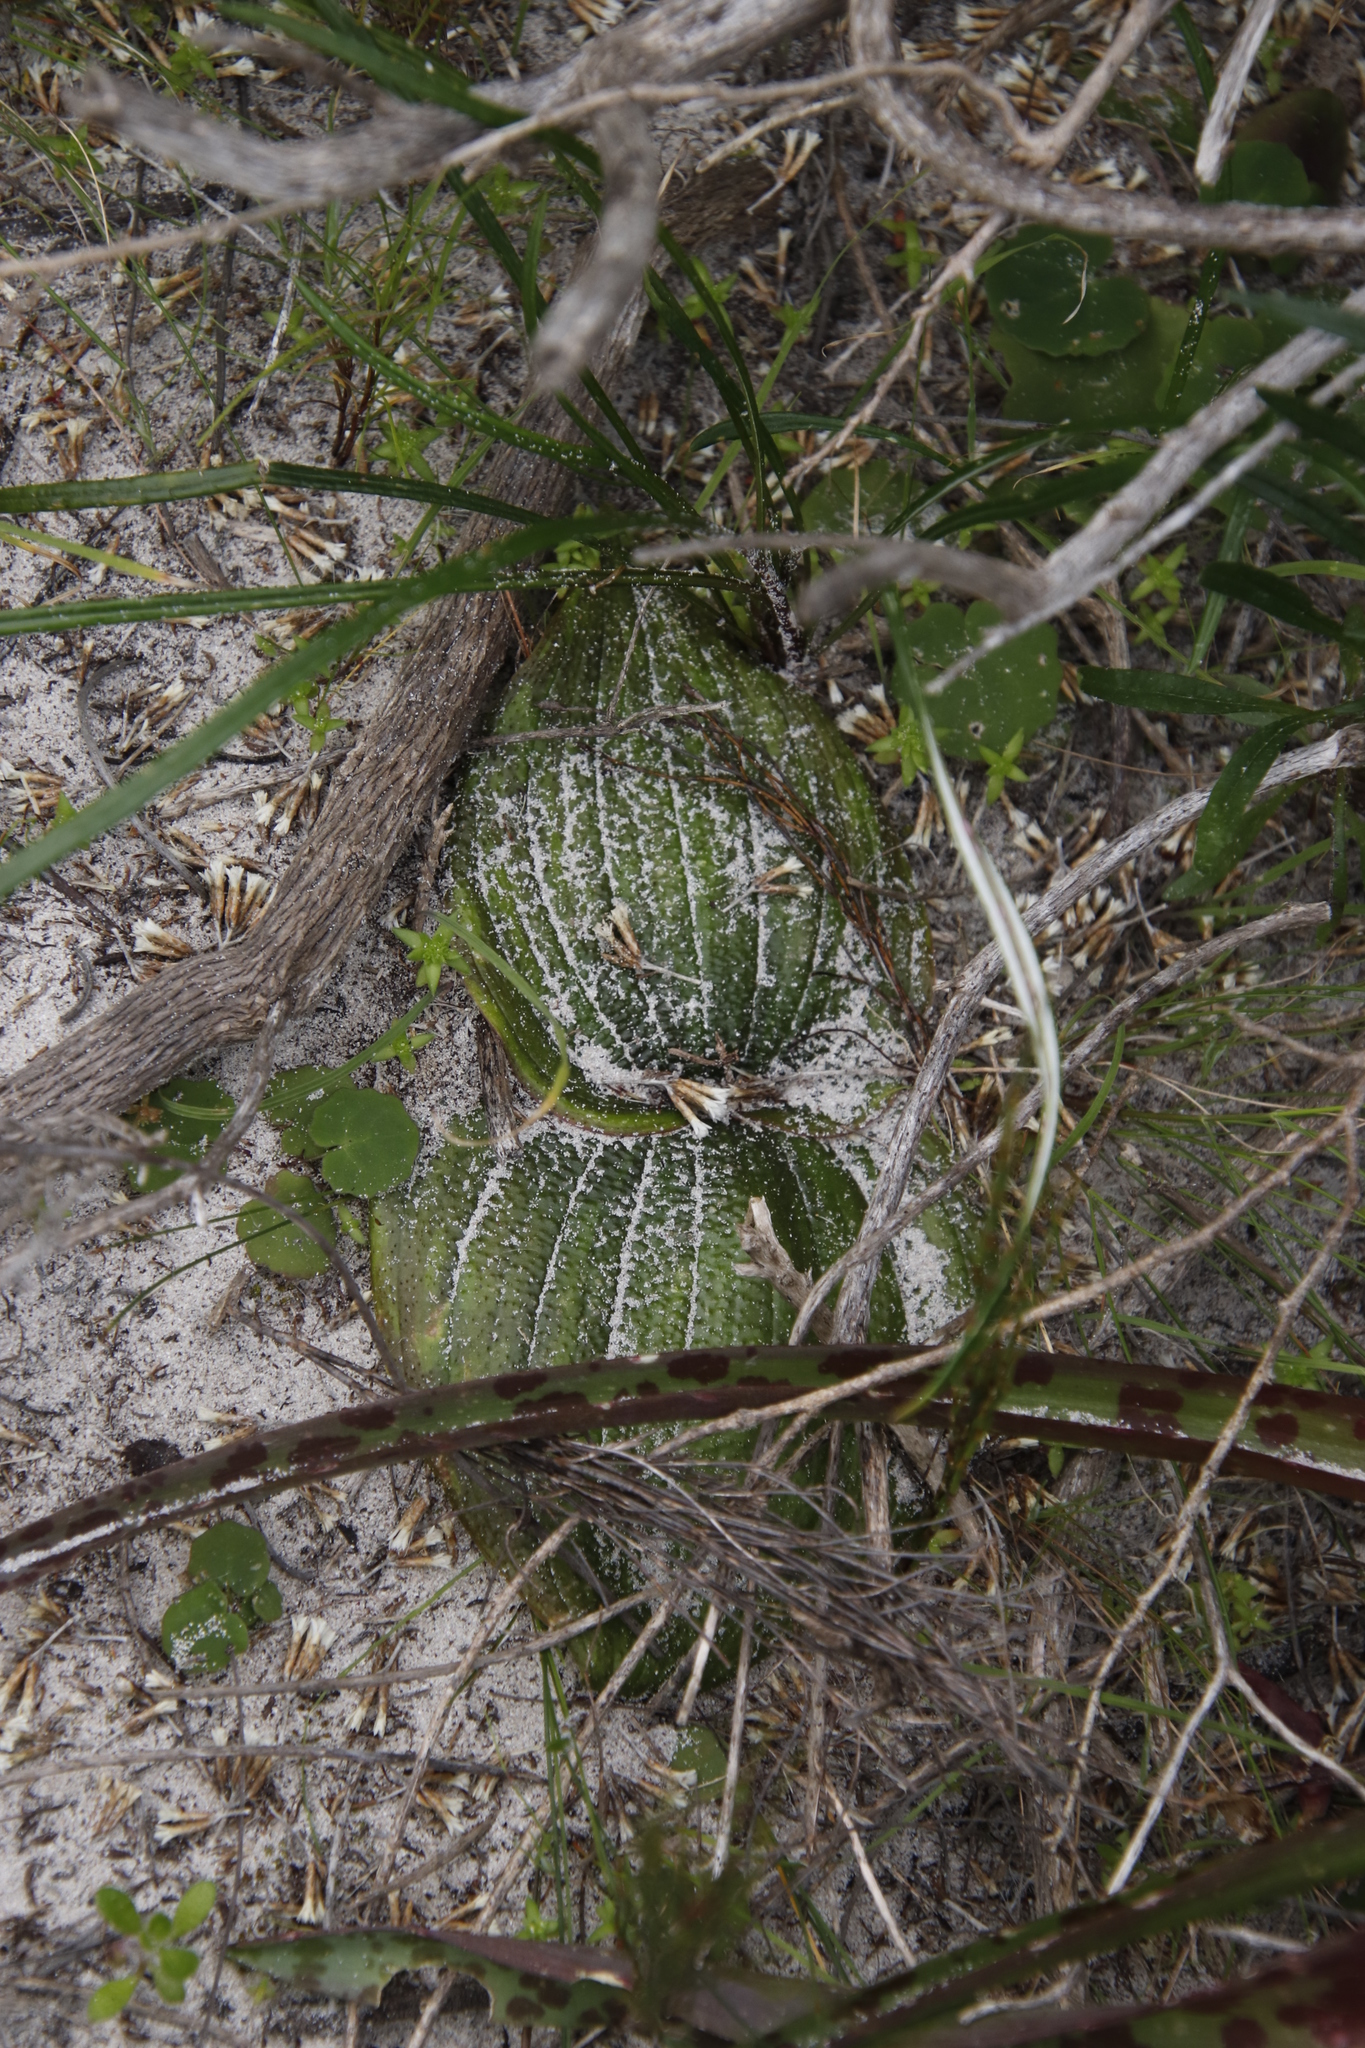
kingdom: Plantae
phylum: Tracheophyta
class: Liliopsida
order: Asparagales
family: Asparagaceae
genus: Massonia
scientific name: Massonia longipes
